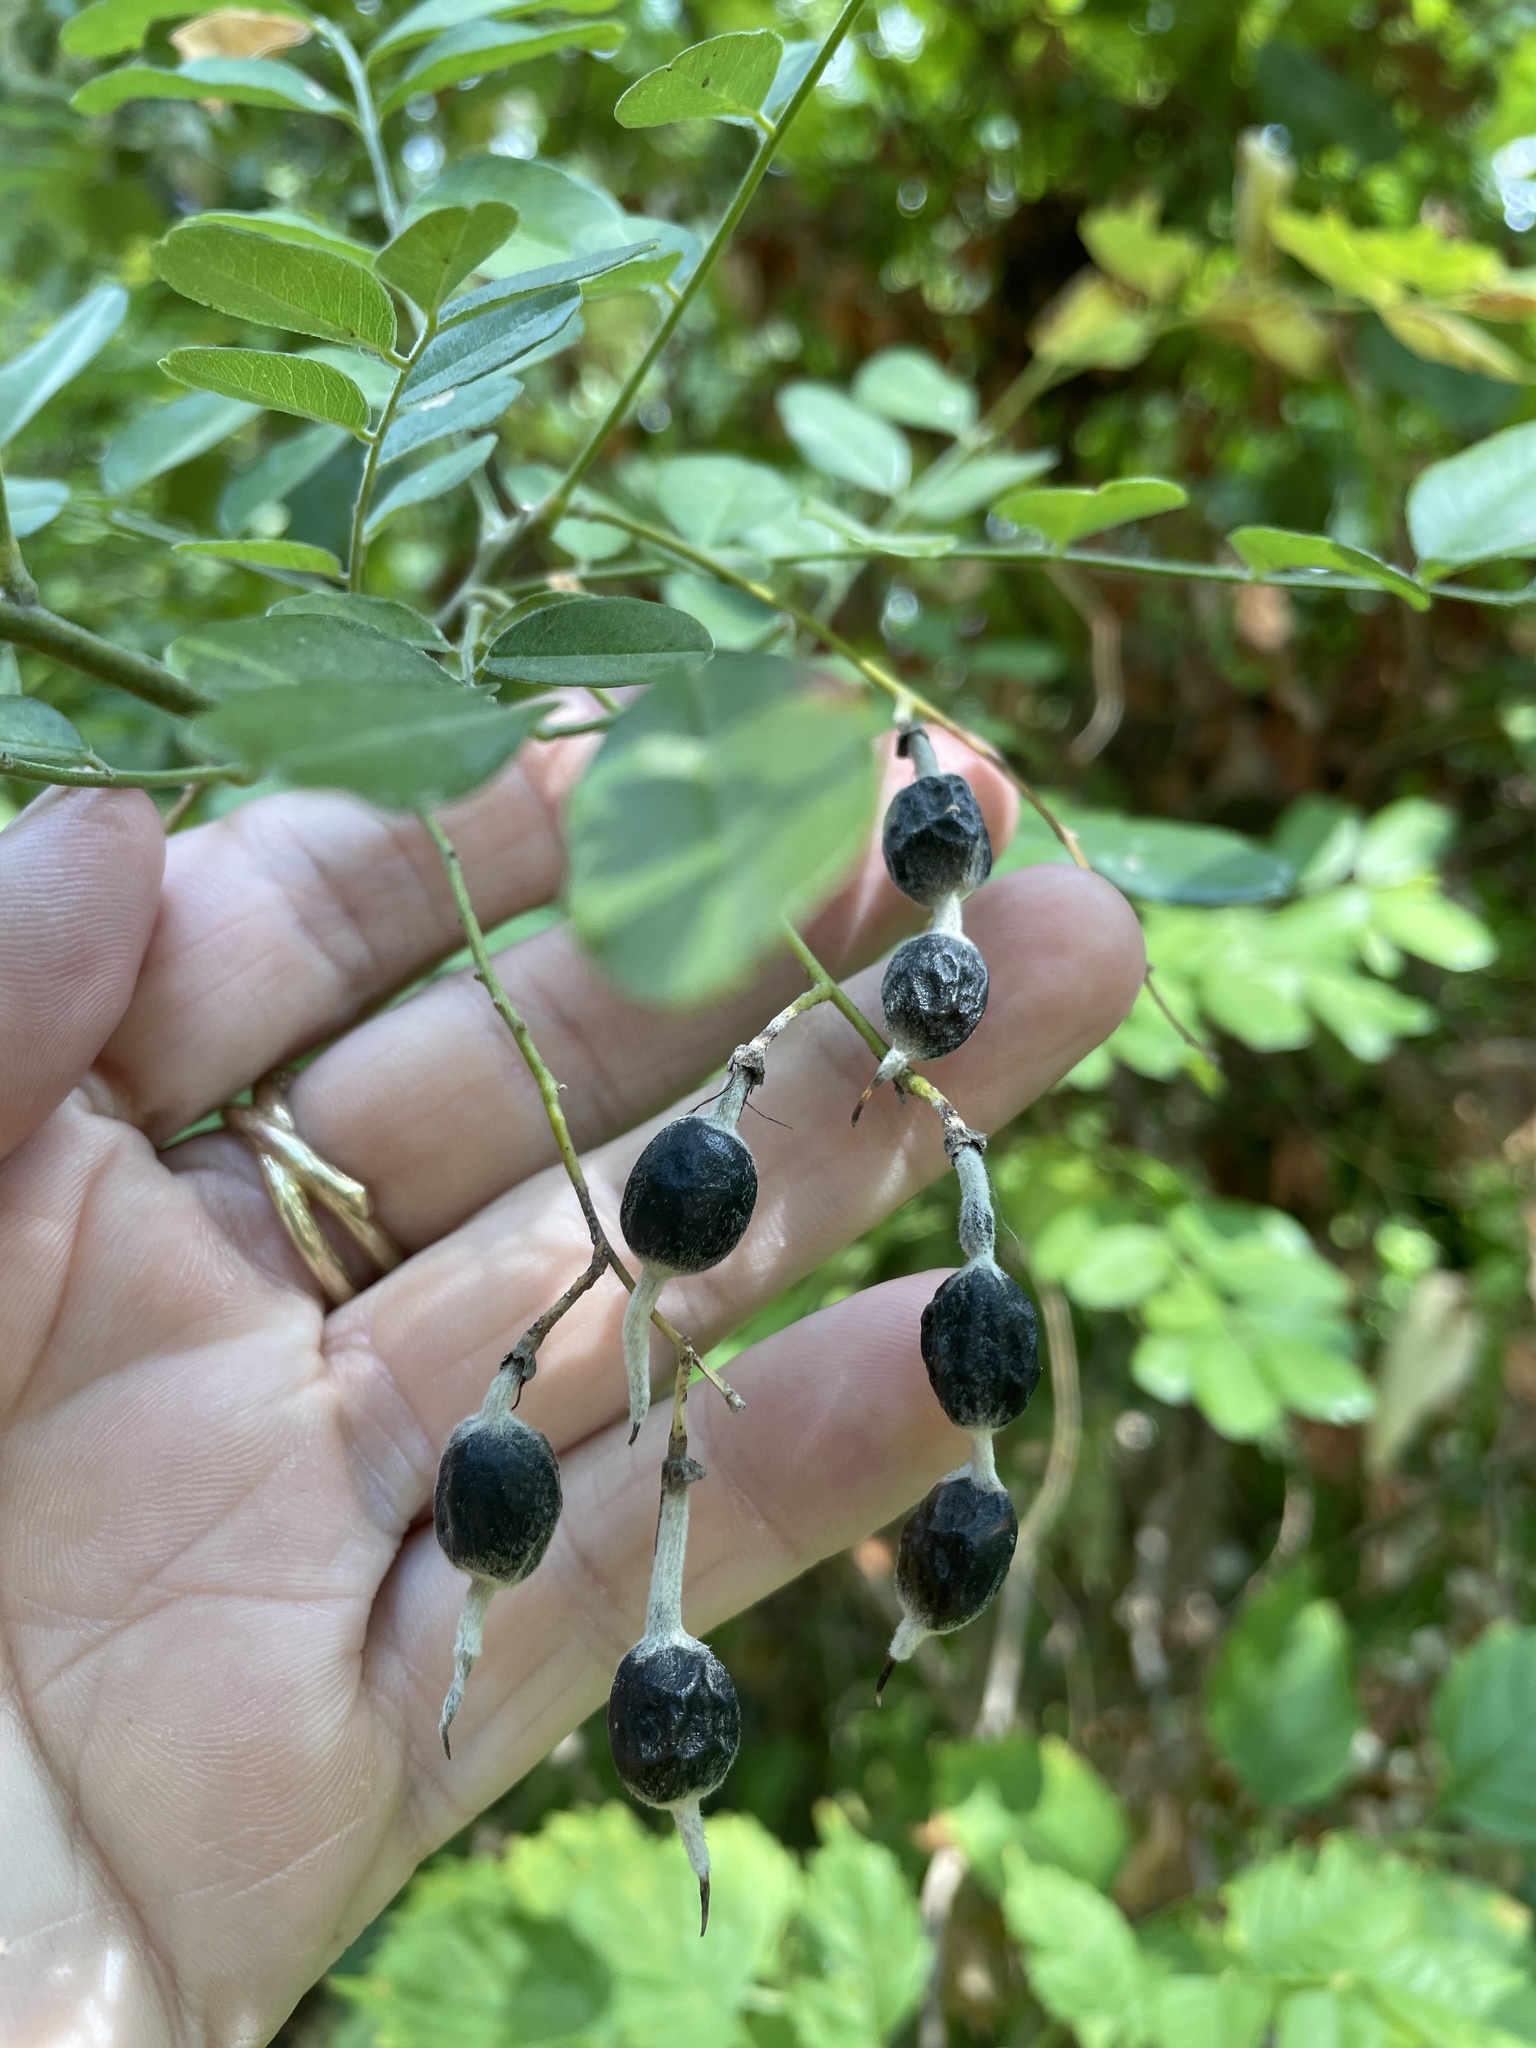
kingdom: Plantae
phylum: Tracheophyta
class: Magnoliopsida
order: Fabales
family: Fabaceae
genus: Styphnolobium
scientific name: Styphnolobium affine
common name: Texas sophora
